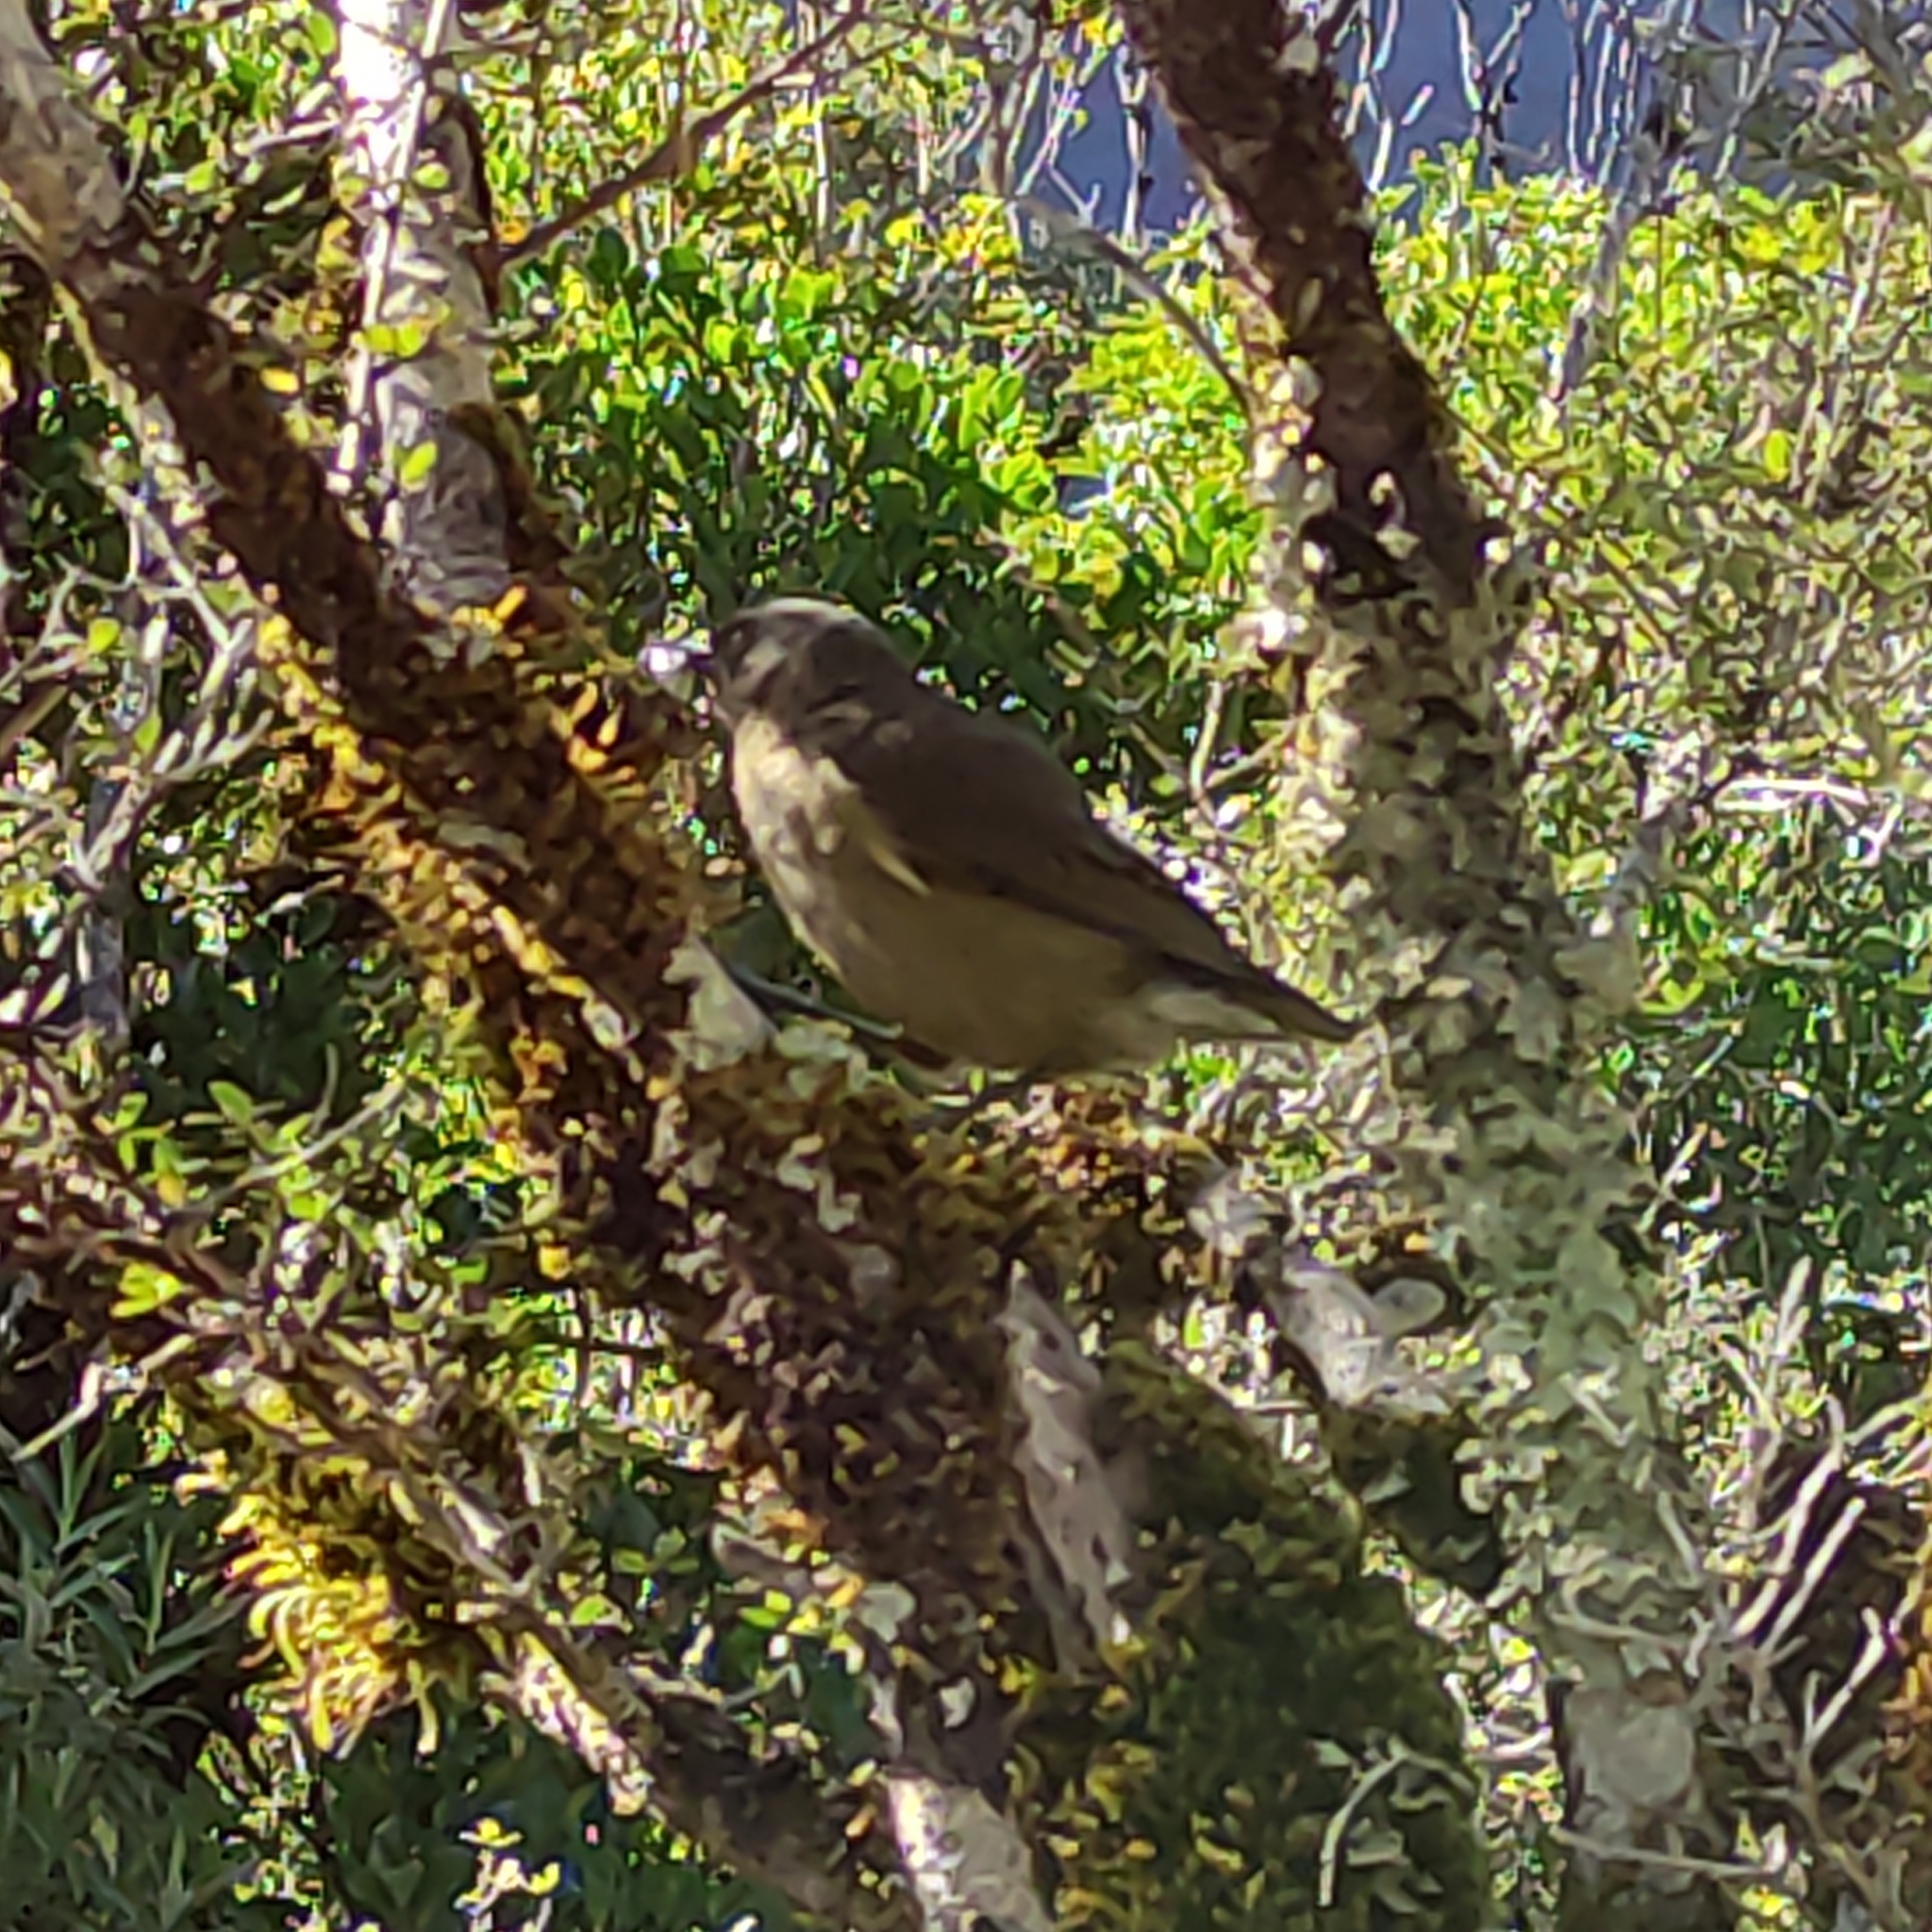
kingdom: Animalia
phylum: Chordata
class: Aves
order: Passeriformes
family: Meliphagidae
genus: Anthornis
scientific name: Anthornis melanura
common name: New zealand bellbird
